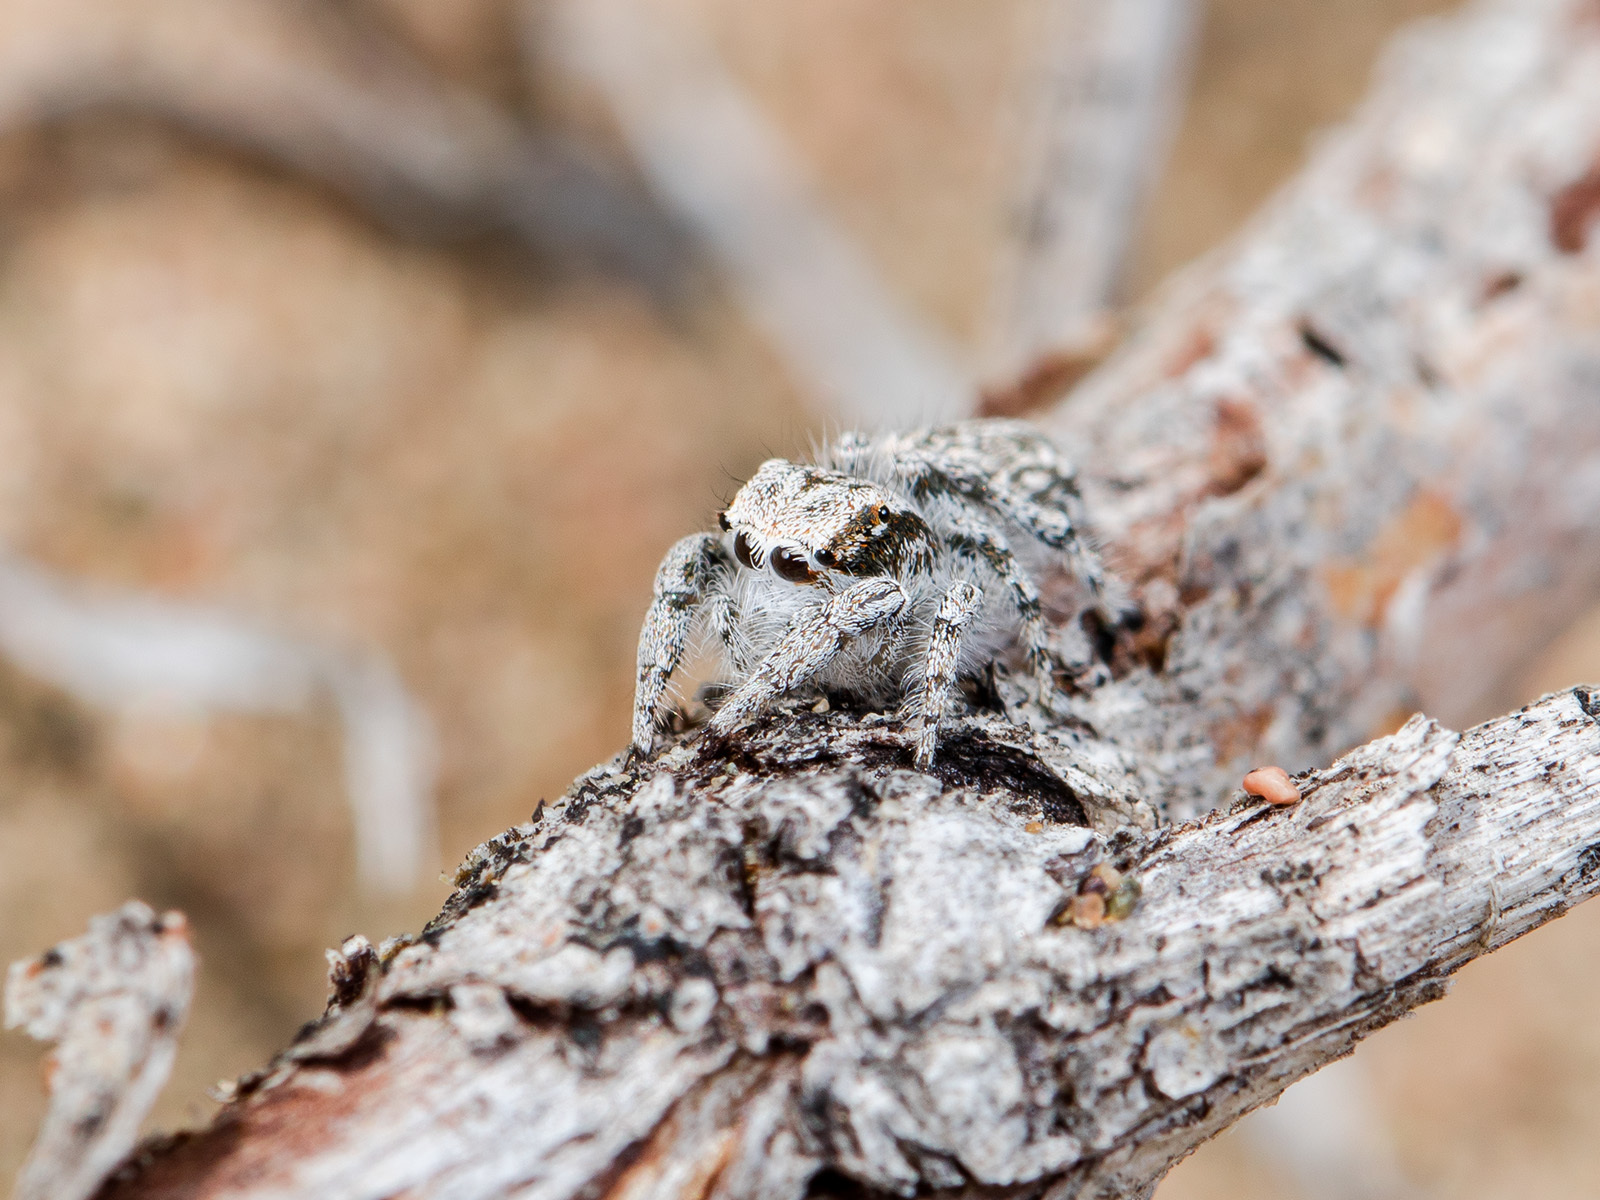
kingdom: Animalia
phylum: Arthropoda
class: Arachnida
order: Araneae
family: Salticidae
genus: Marusyllus
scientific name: Marusyllus aralicus
